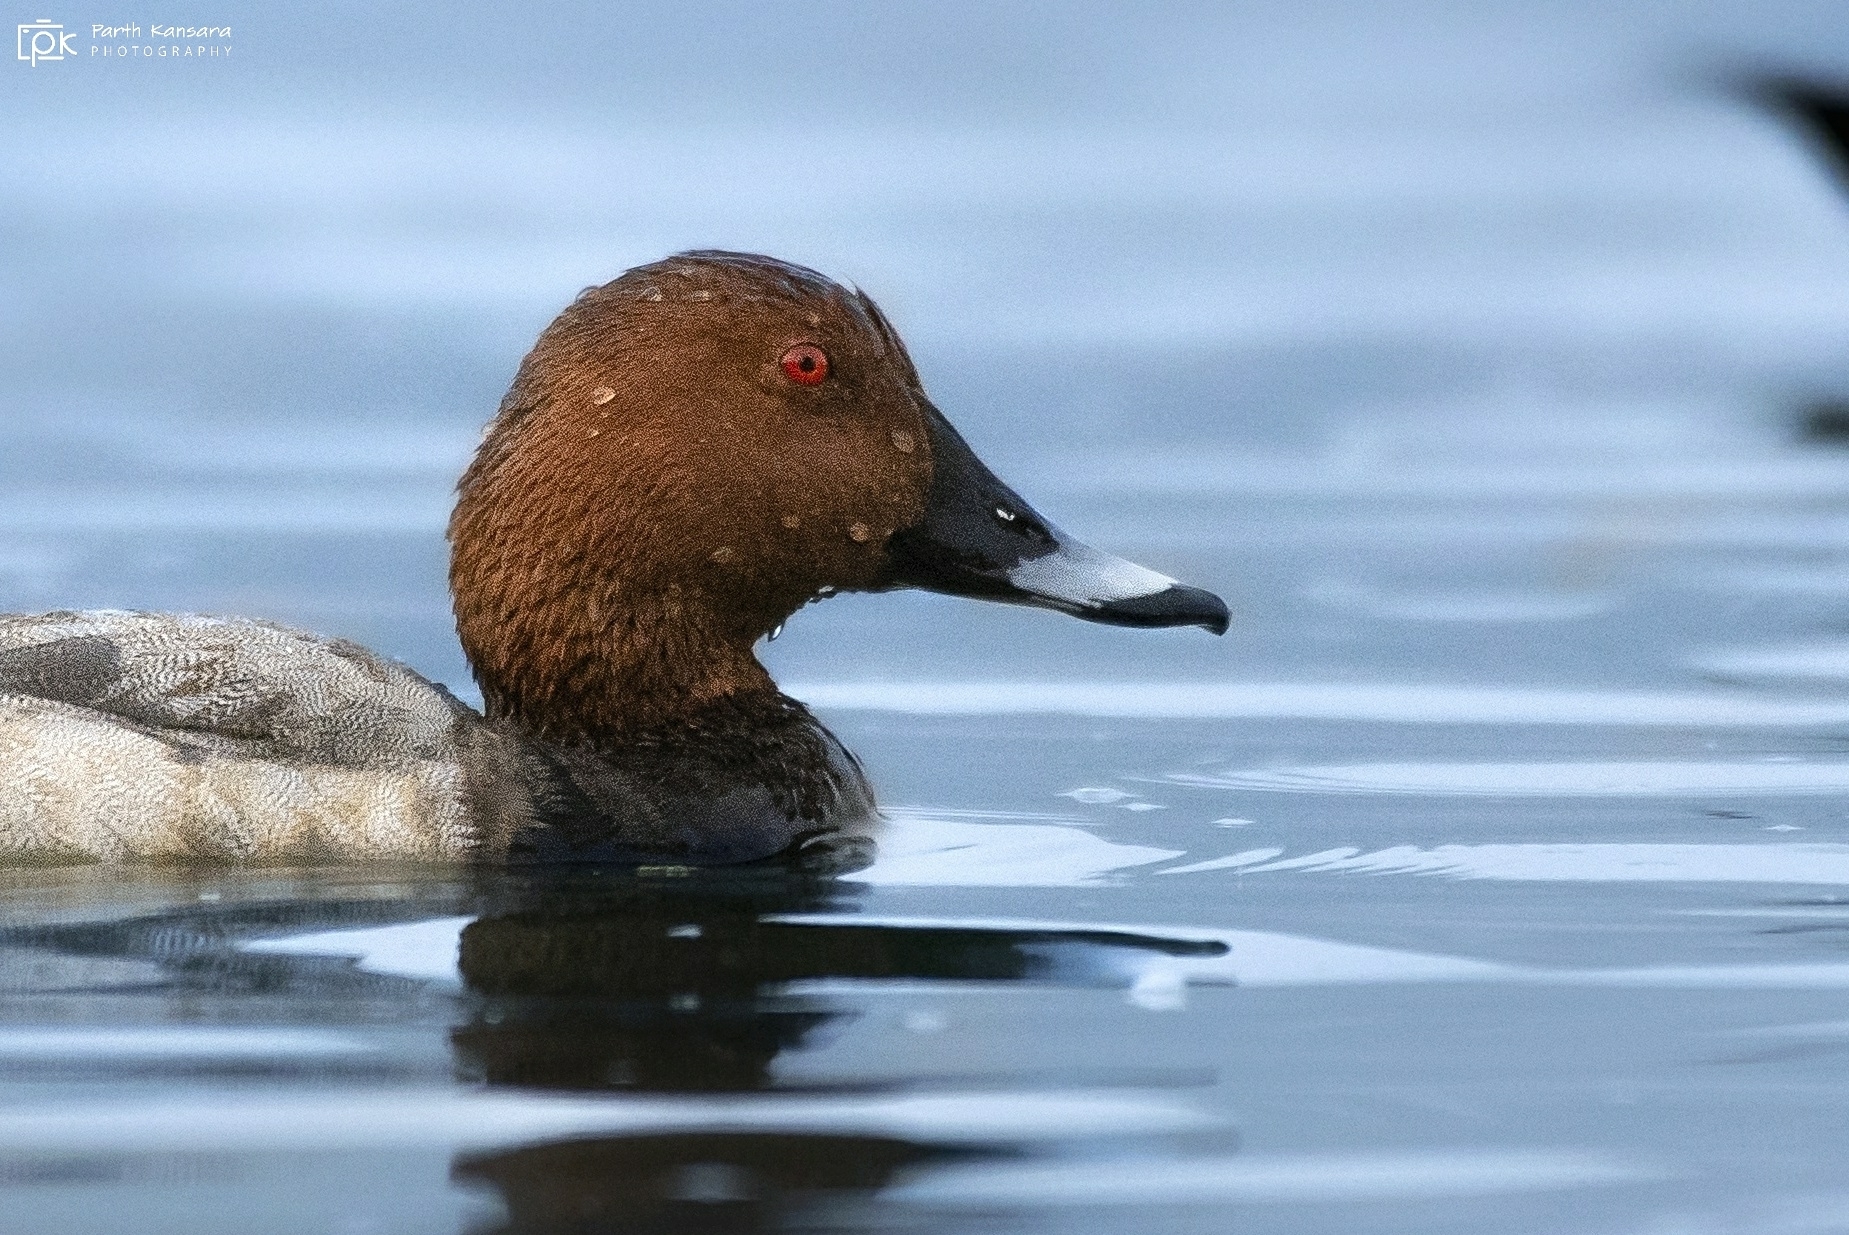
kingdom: Animalia
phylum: Chordata
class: Aves
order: Anseriformes
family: Anatidae
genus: Aythya
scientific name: Aythya ferina
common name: Common pochard
